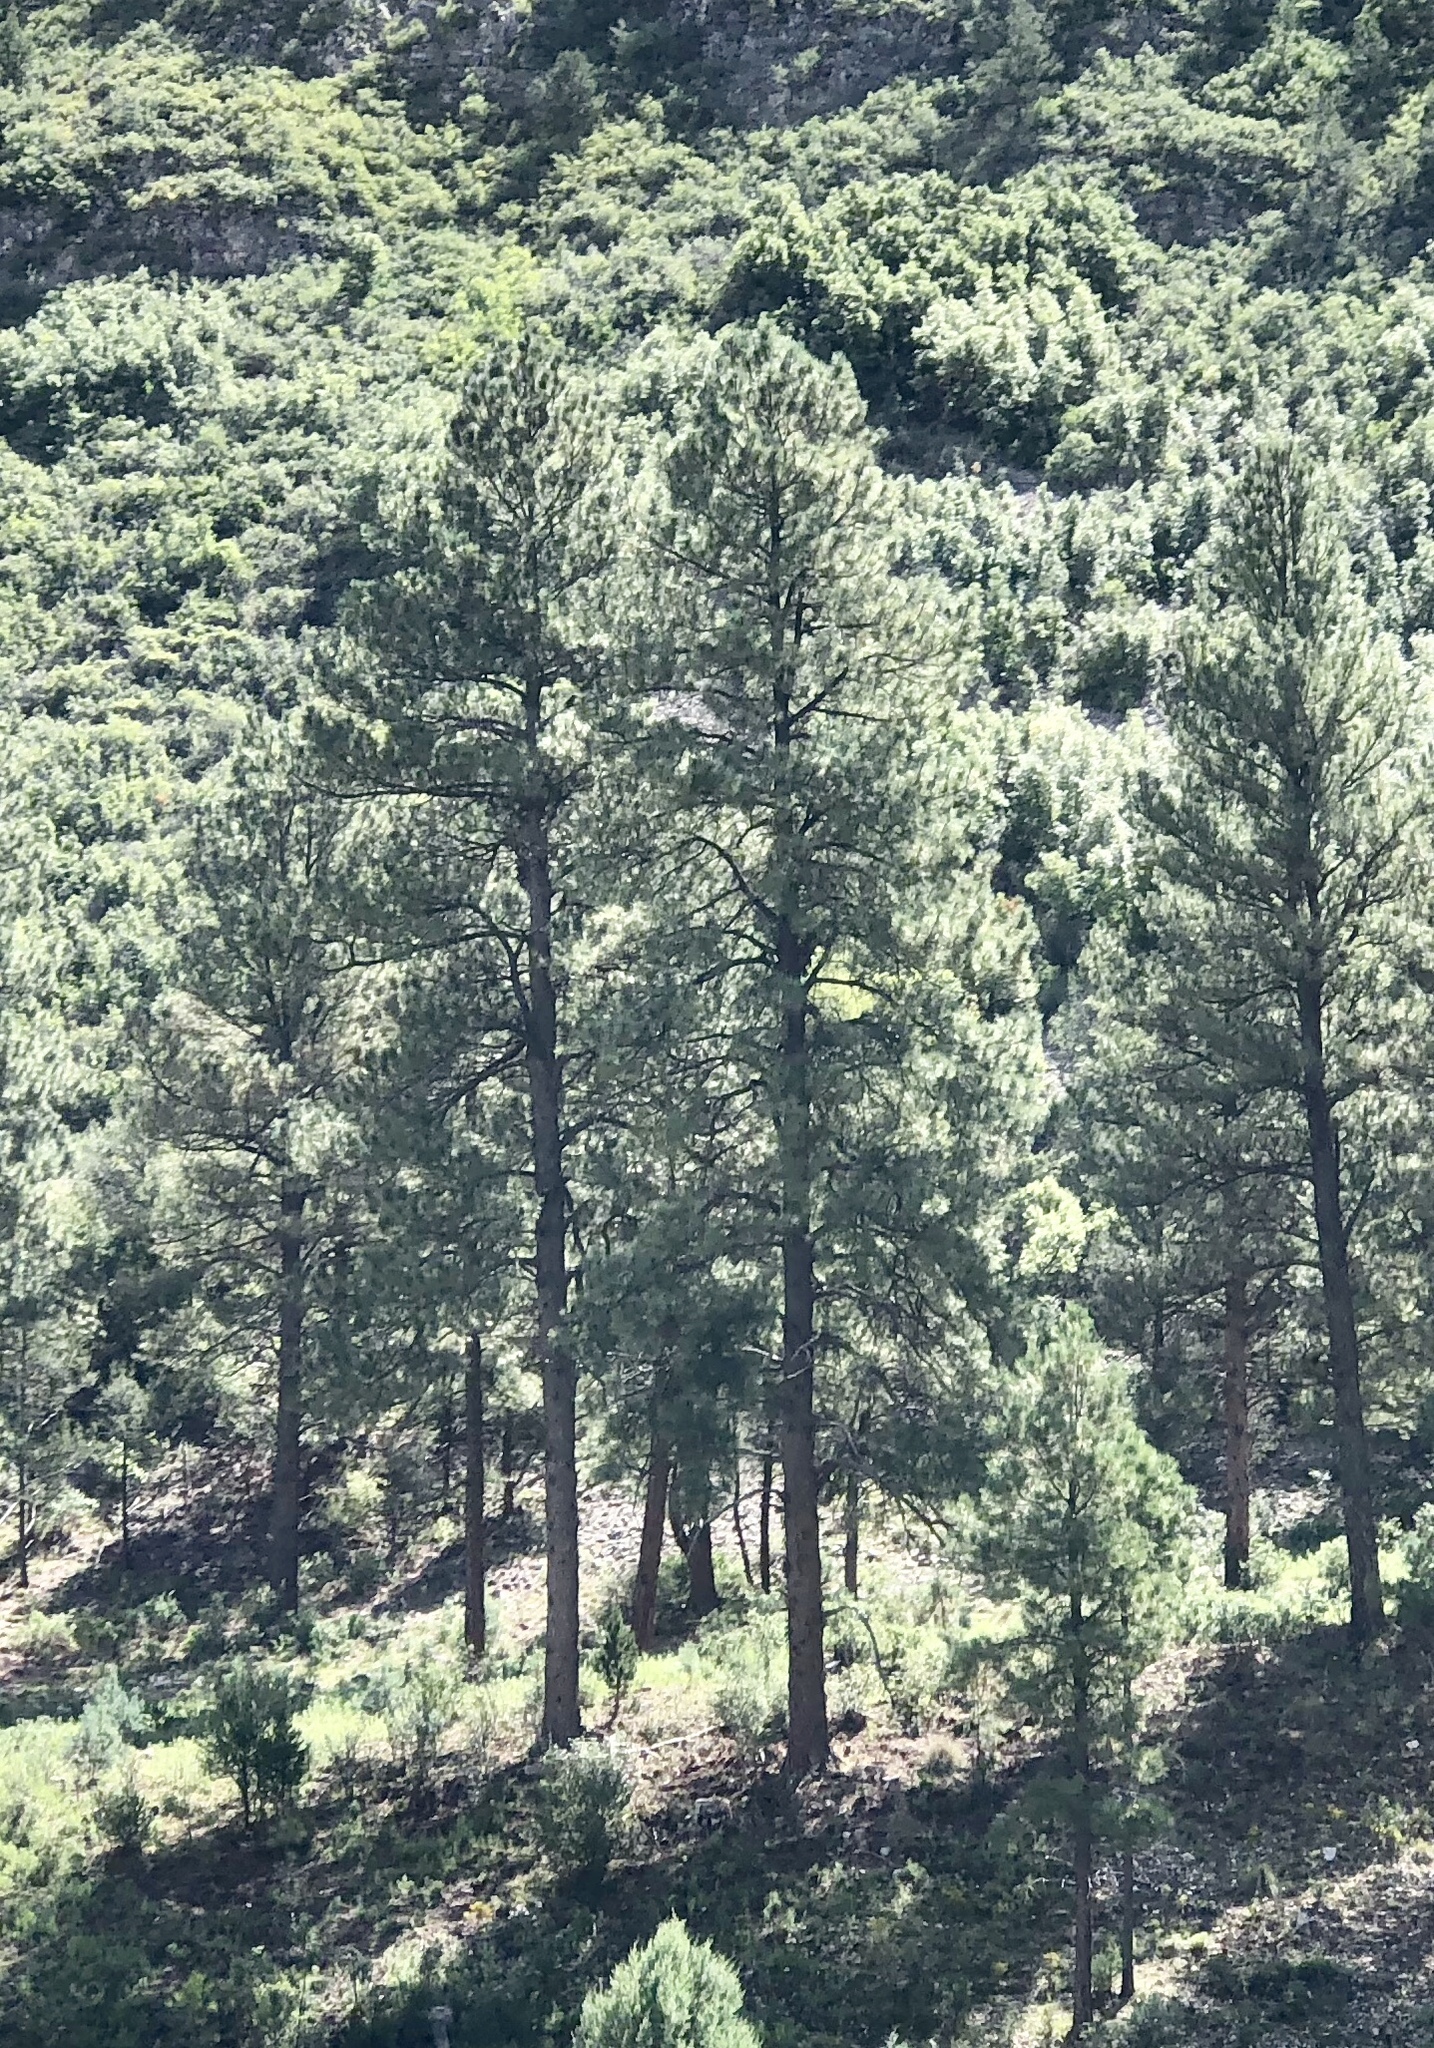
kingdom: Plantae
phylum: Tracheophyta
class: Pinopsida
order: Pinales
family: Pinaceae
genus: Pinus
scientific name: Pinus ponderosa
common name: Western yellow-pine
